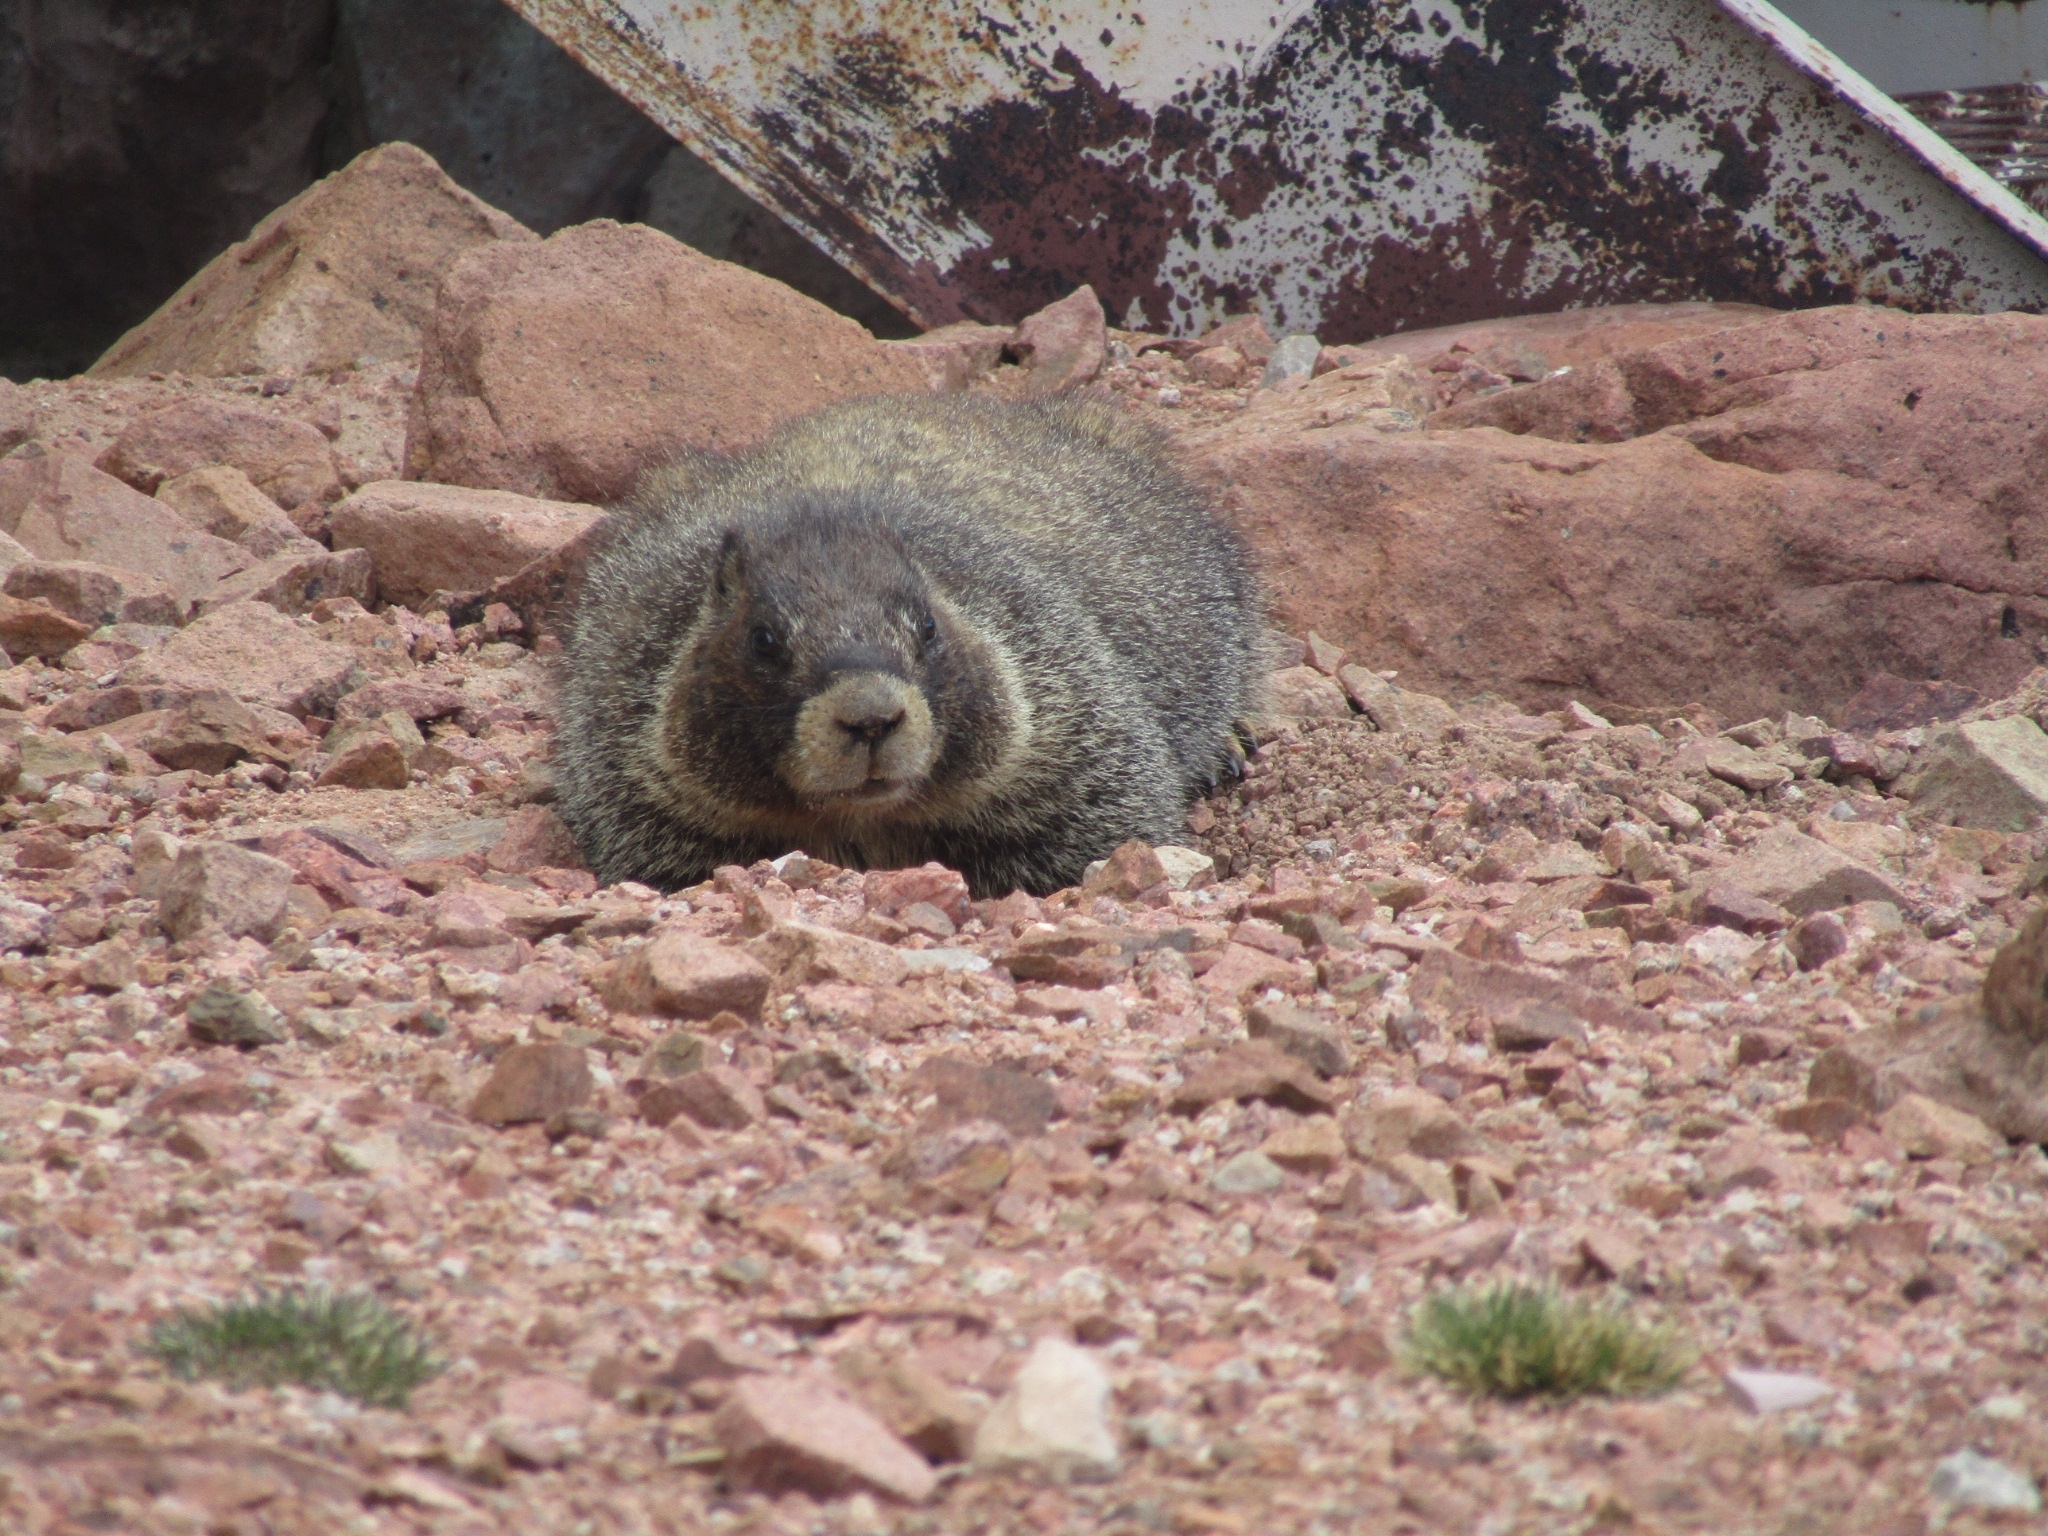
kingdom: Animalia
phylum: Chordata
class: Mammalia
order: Rodentia
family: Sciuridae
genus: Marmota
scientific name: Marmota flaviventris
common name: Yellow-bellied marmot
